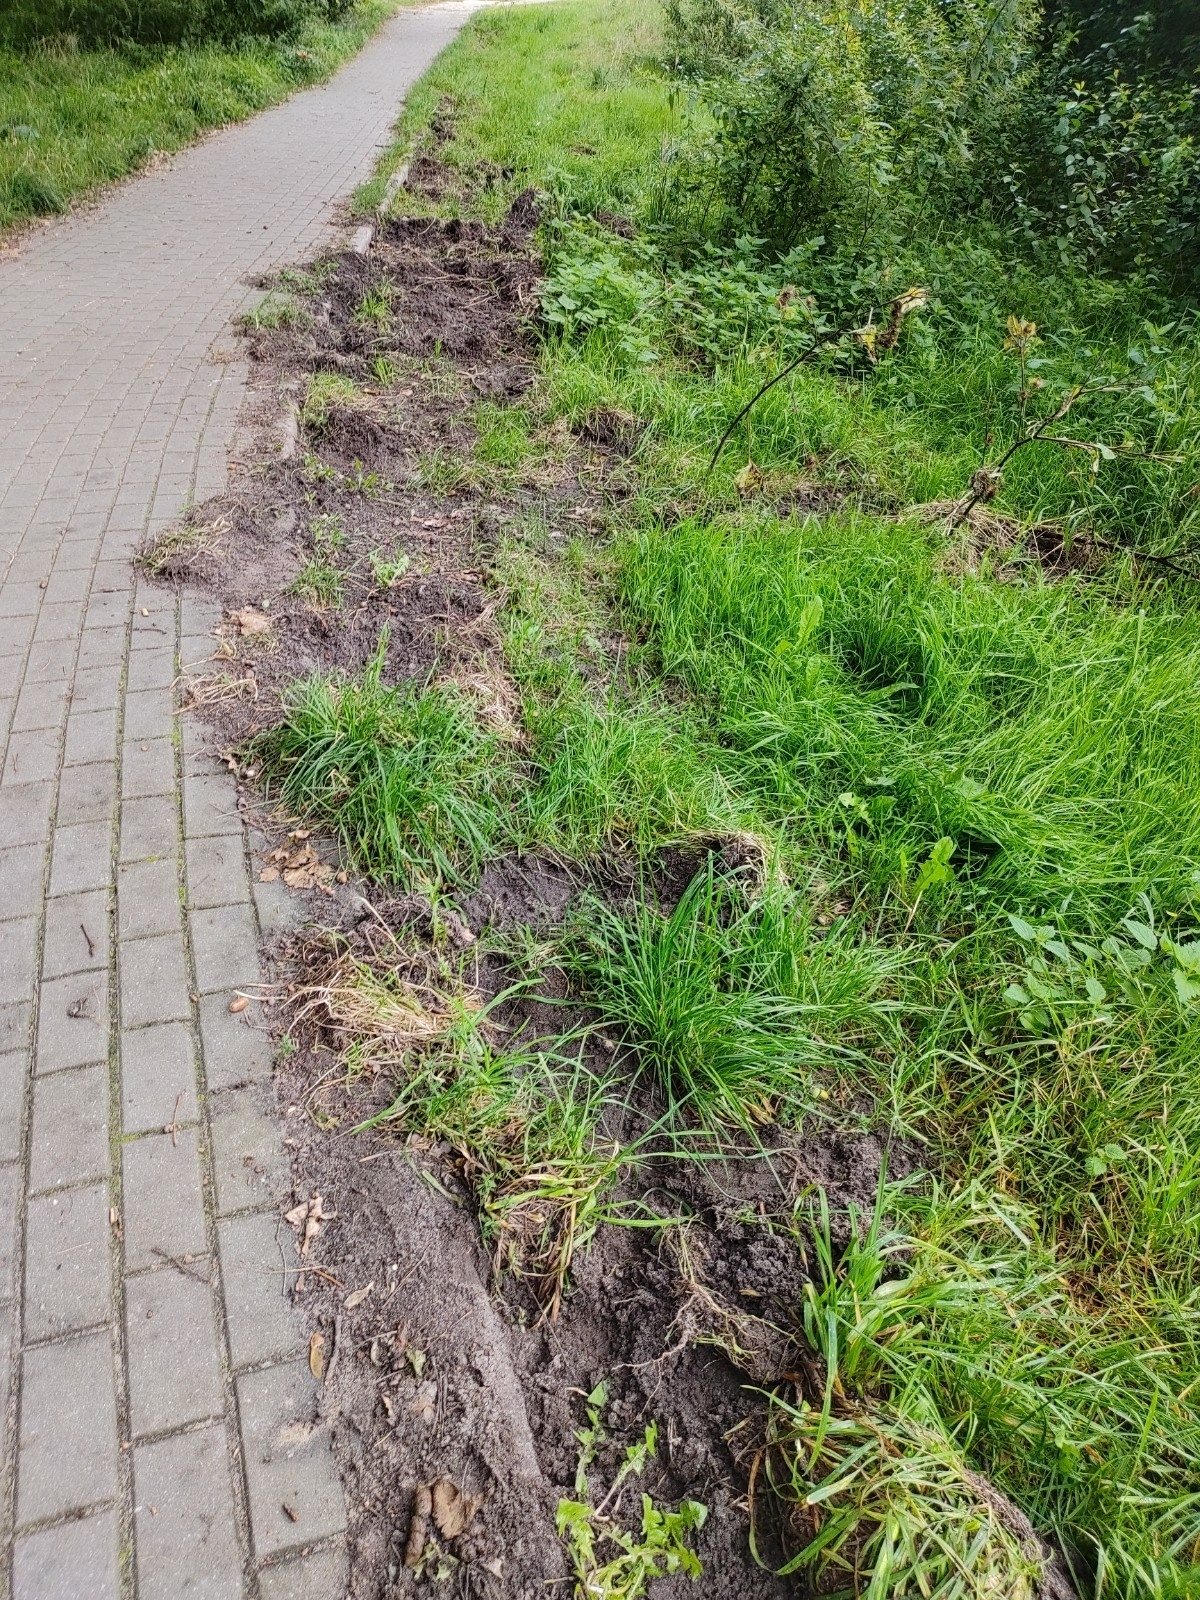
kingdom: Animalia
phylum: Chordata
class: Mammalia
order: Artiodactyla
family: Suidae
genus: Sus
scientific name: Sus scrofa
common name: Wild boar
